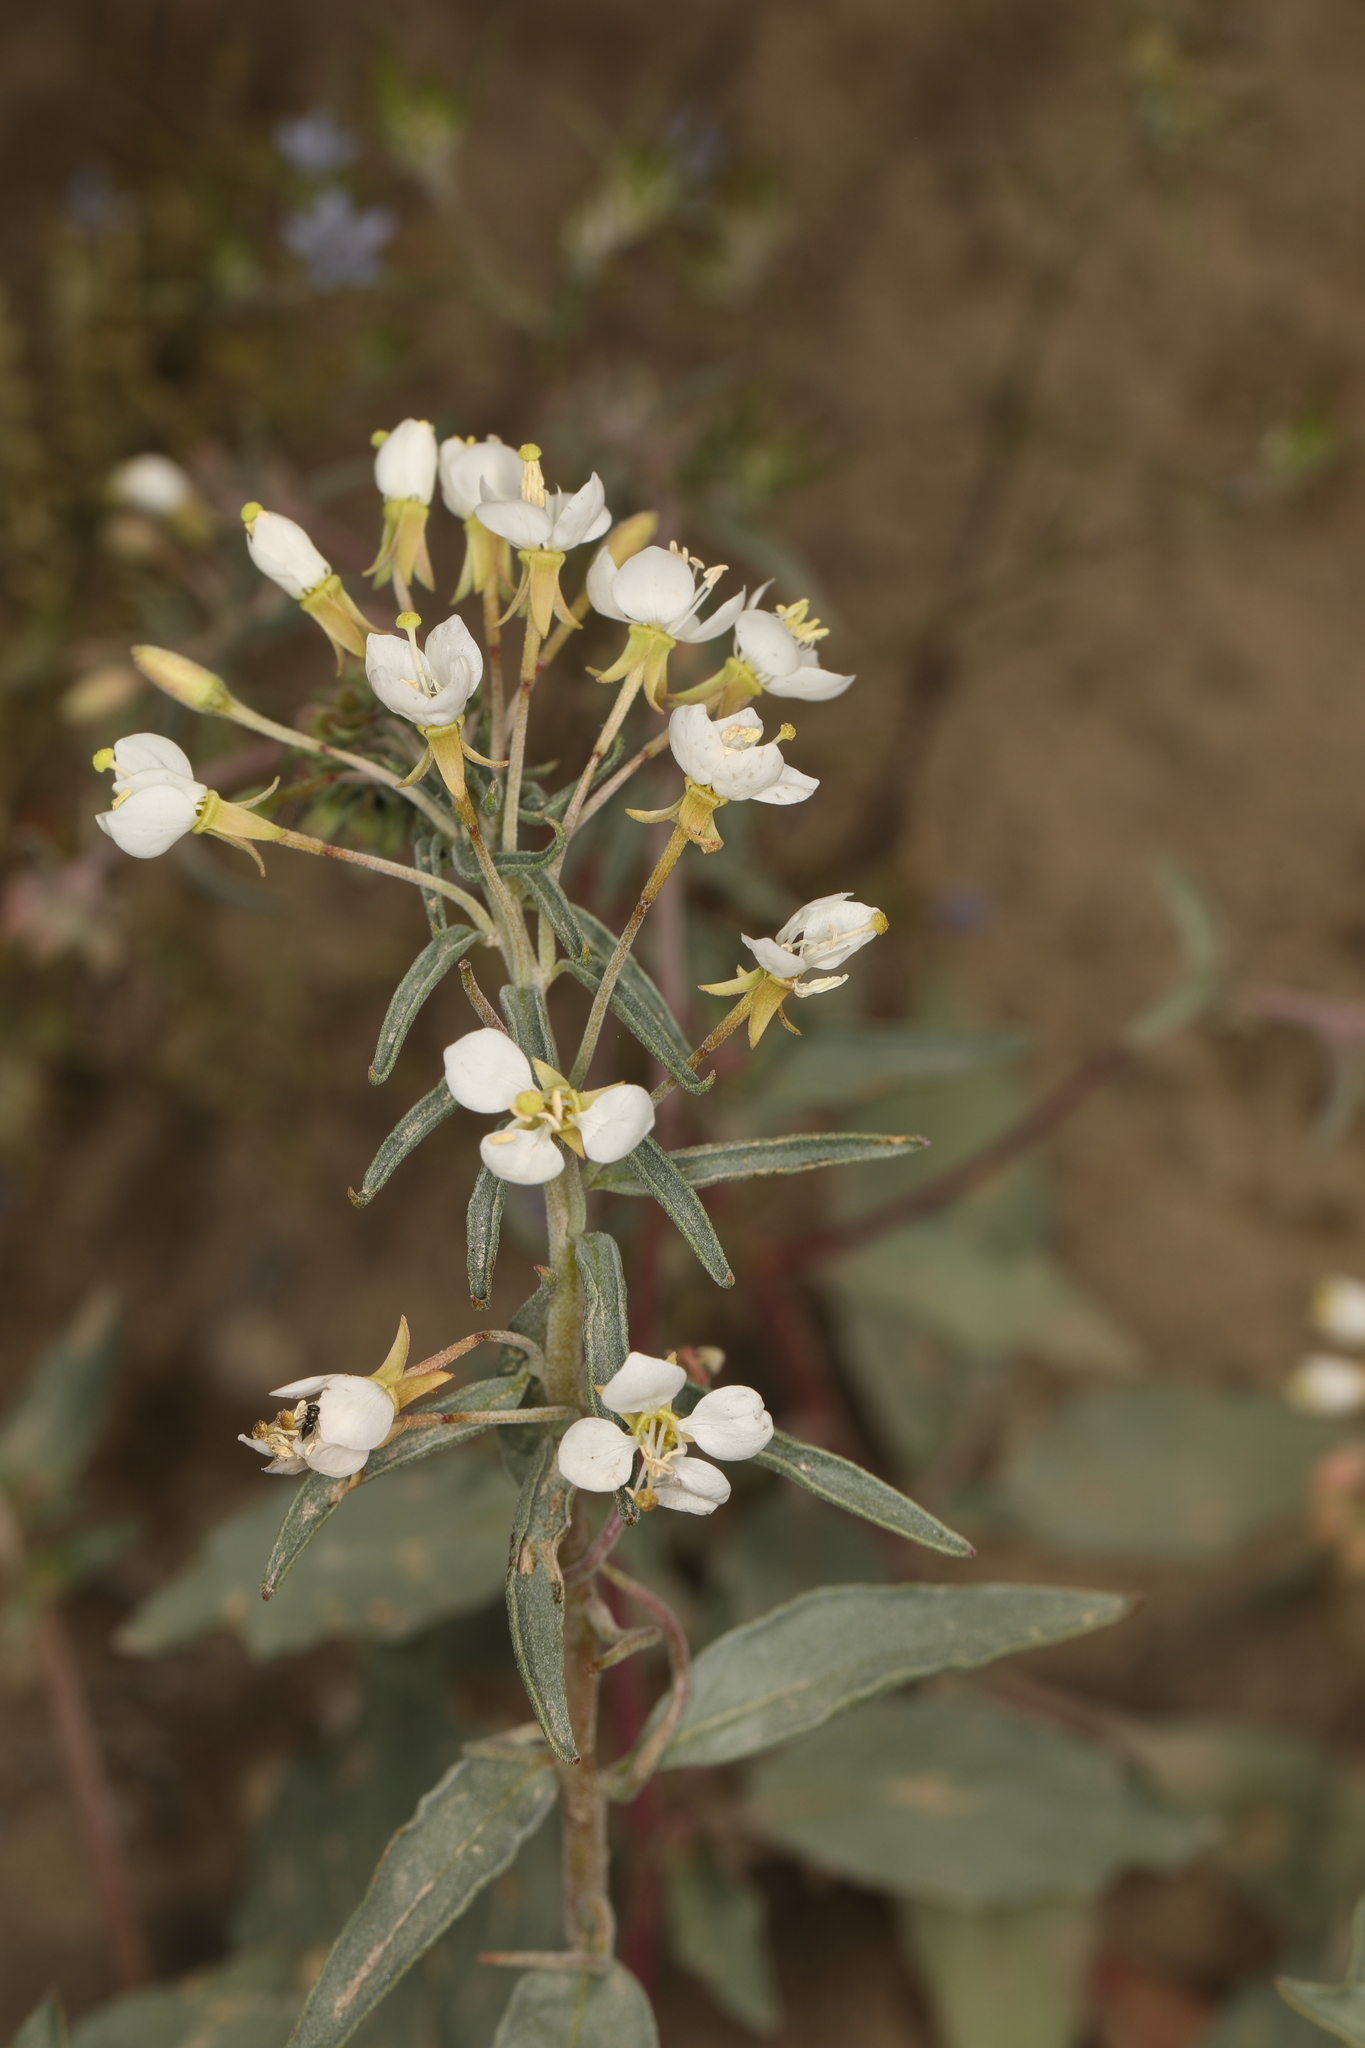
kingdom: Plantae
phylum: Tracheophyta
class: Magnoliopsida
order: Myrtales
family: Onagraceae
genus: Eremothera
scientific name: Eremothera boothii
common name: Booth's evening primrose
